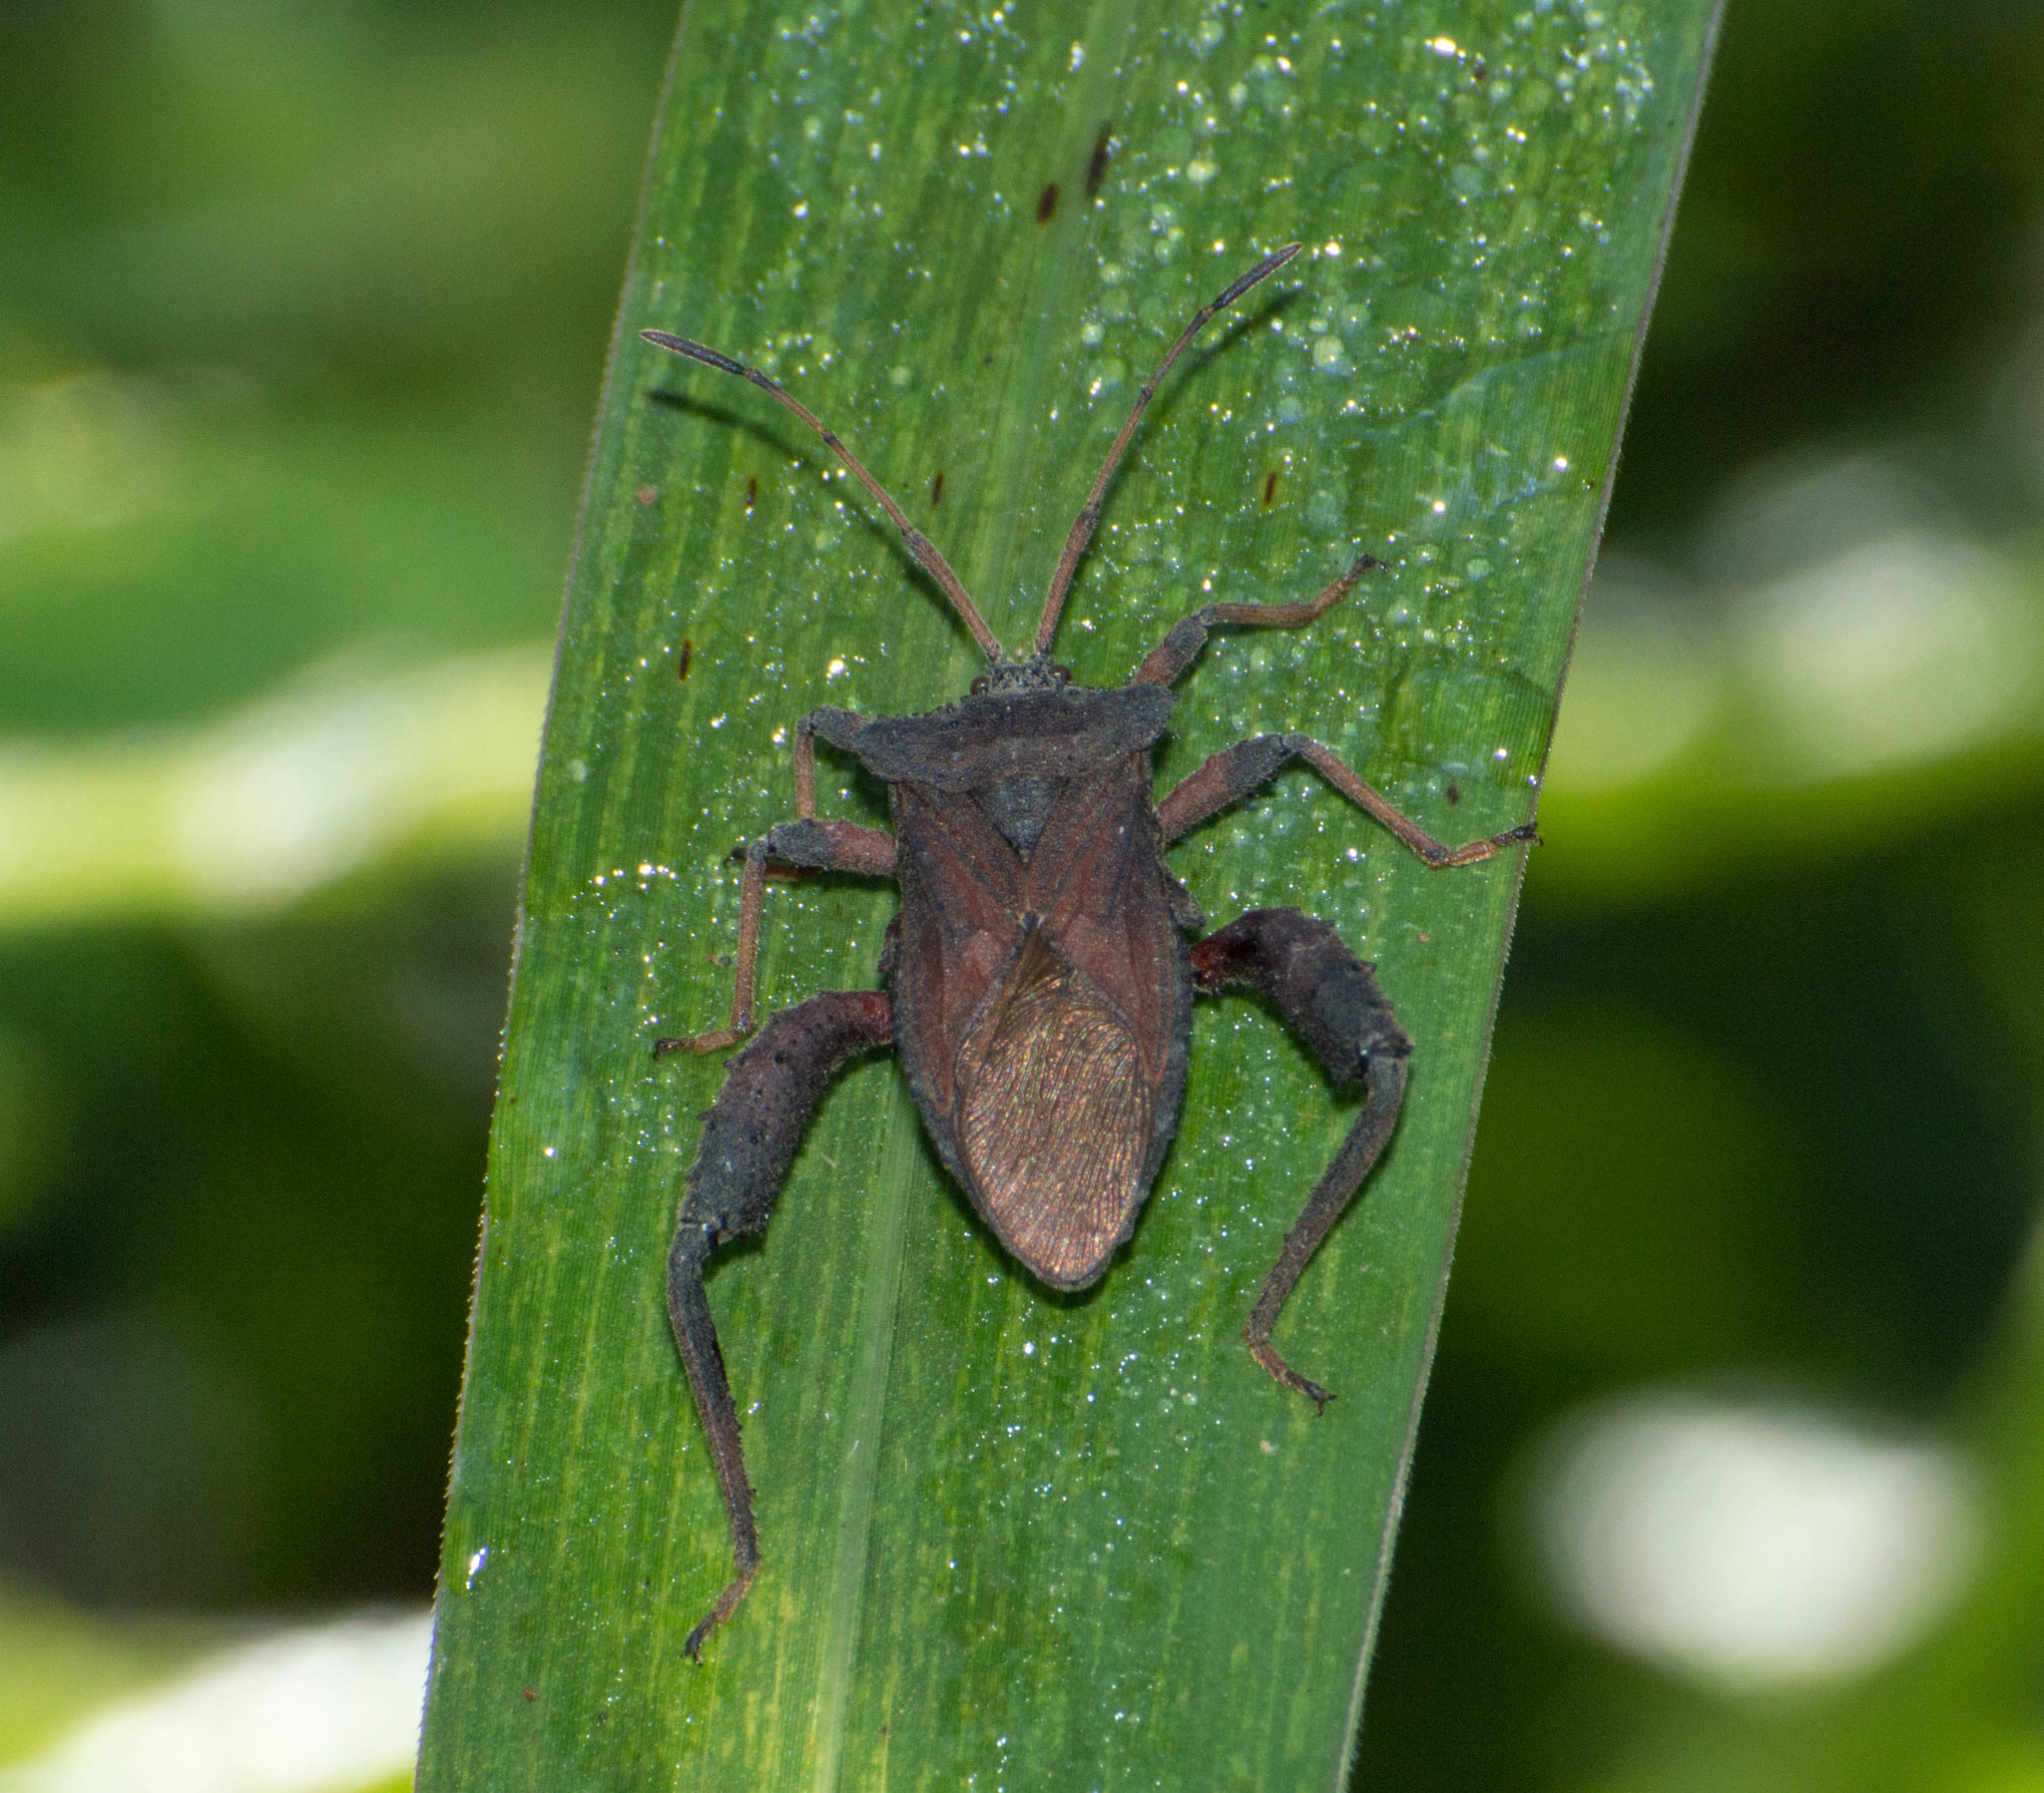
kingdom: Animalia
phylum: Arthropoda
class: Insecta
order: Hemiptera
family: Coreidae
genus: Camptischium
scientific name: Camptischium clavipes
